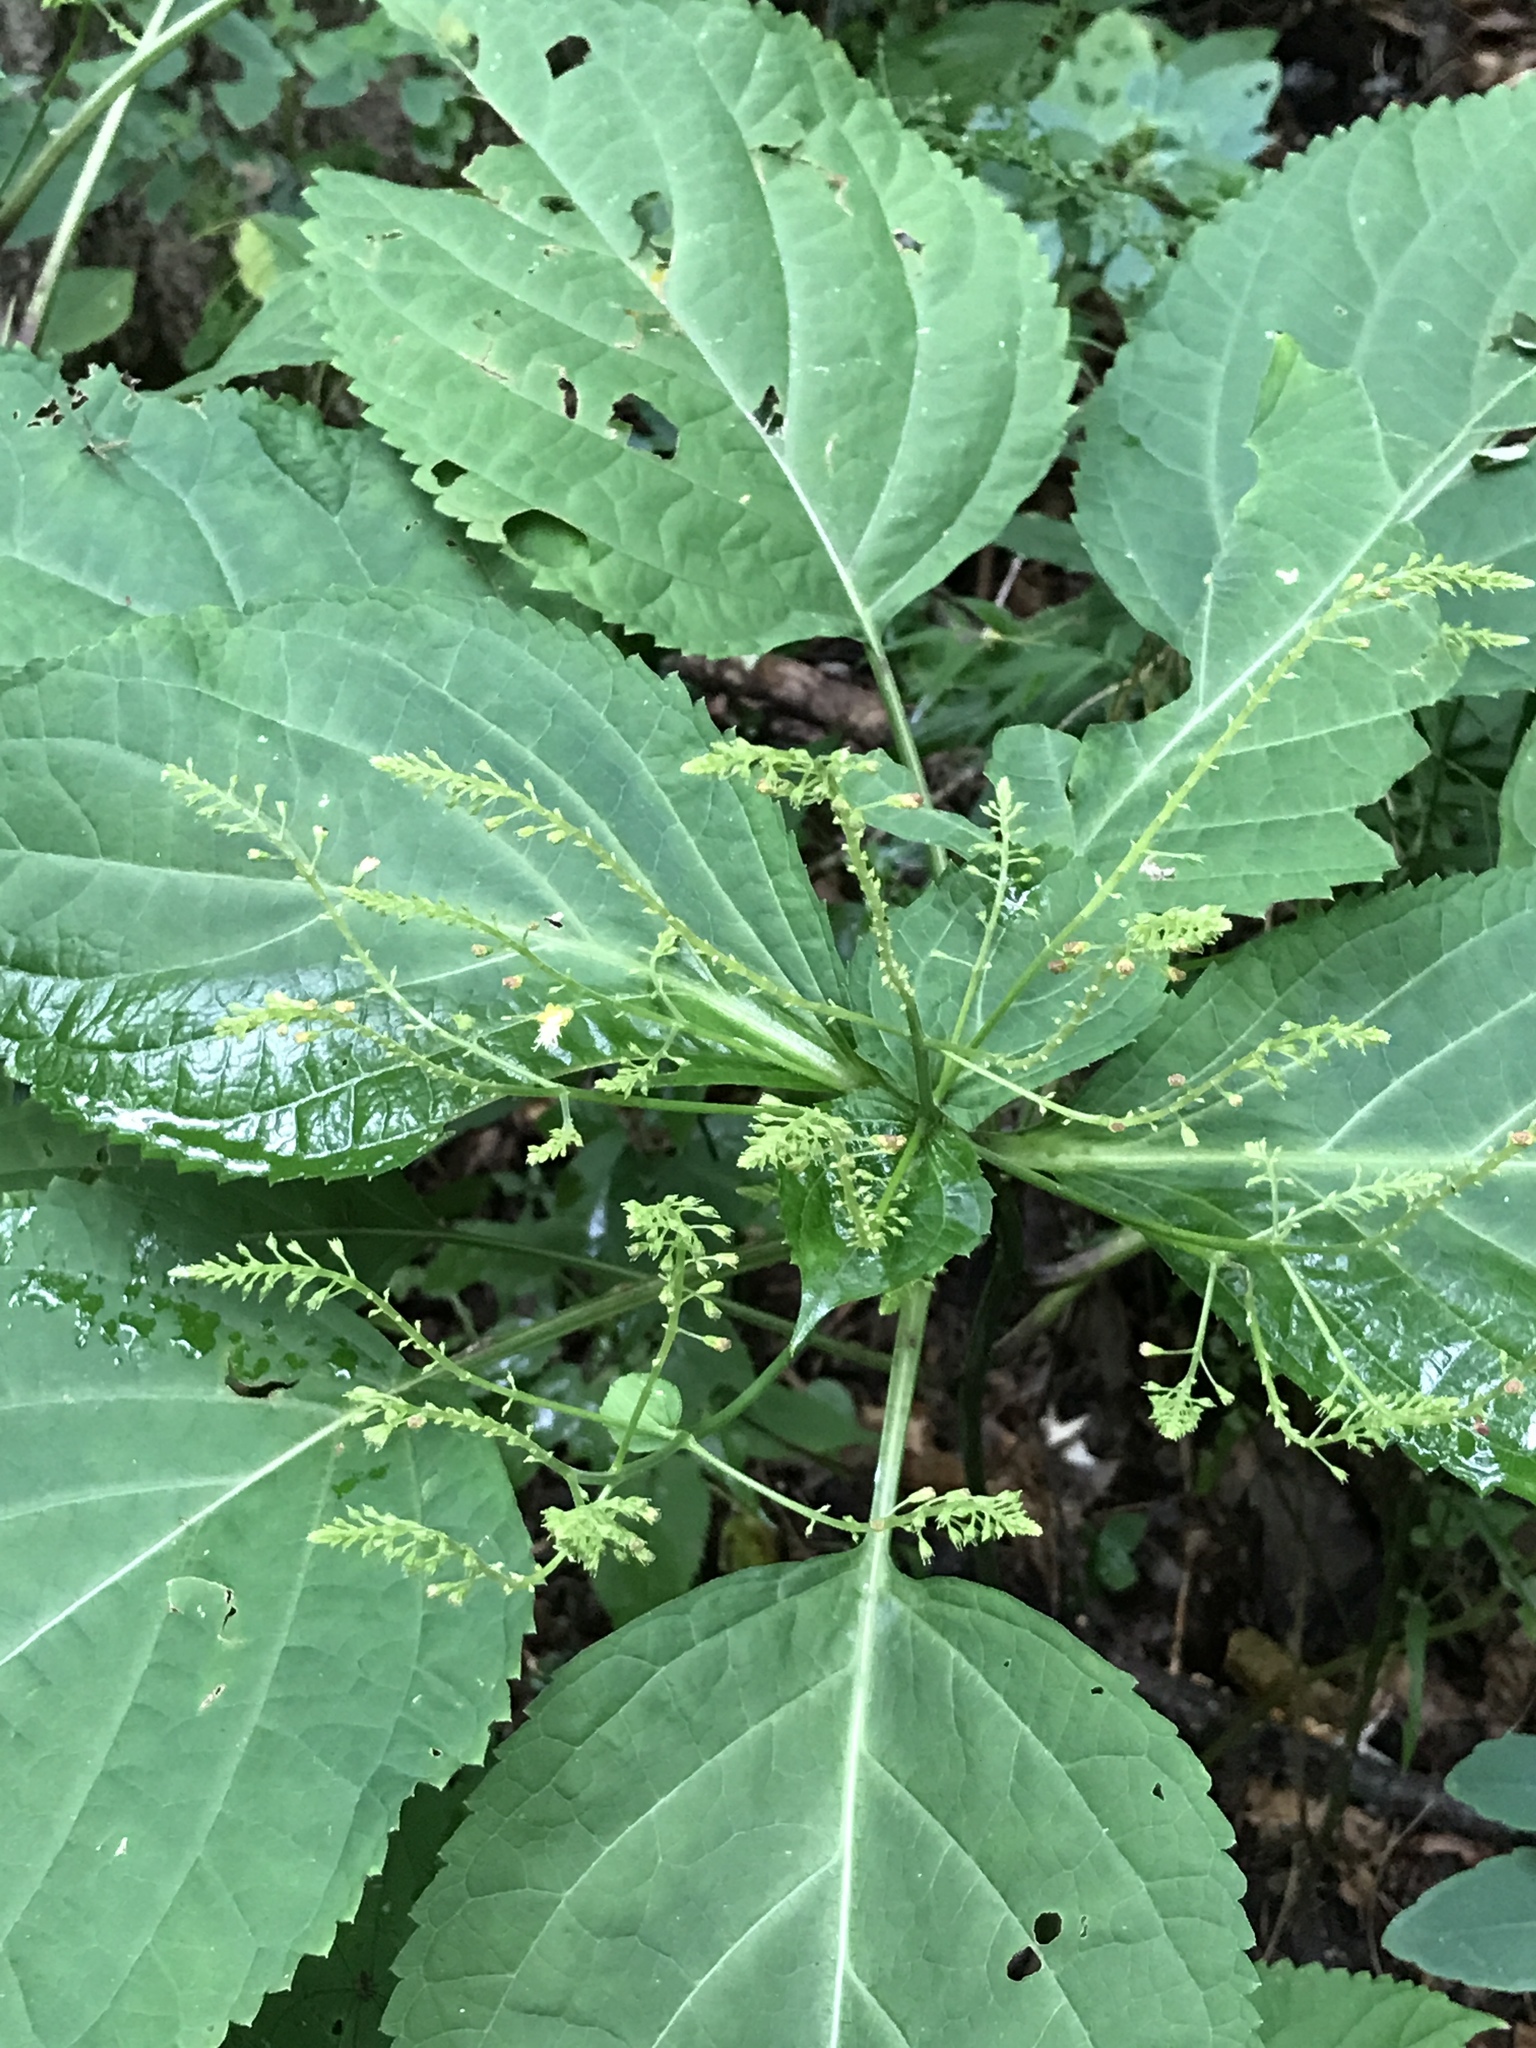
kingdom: Plantae
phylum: Tracheophyta
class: Magnoliopsida
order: Lamiales
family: Lamiaceae
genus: Collinsonia
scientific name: Collinsonia canadensis
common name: Northern horsebalm
